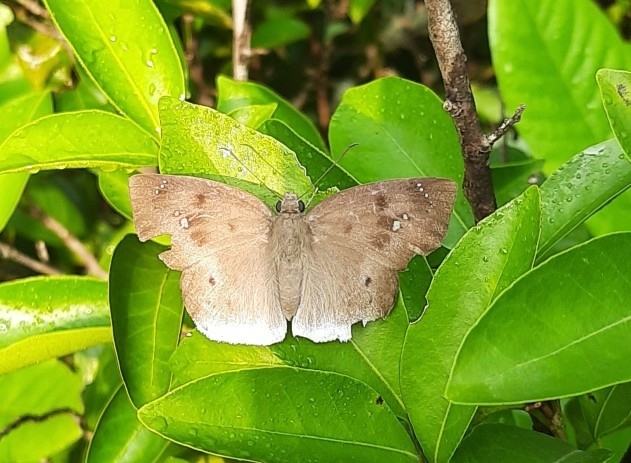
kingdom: Animalia
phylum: Arthropoda
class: Insecta
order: Lepidoptera
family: Hesperiidae
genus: Tagiades
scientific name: Tagiades japetus
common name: Pied flat
